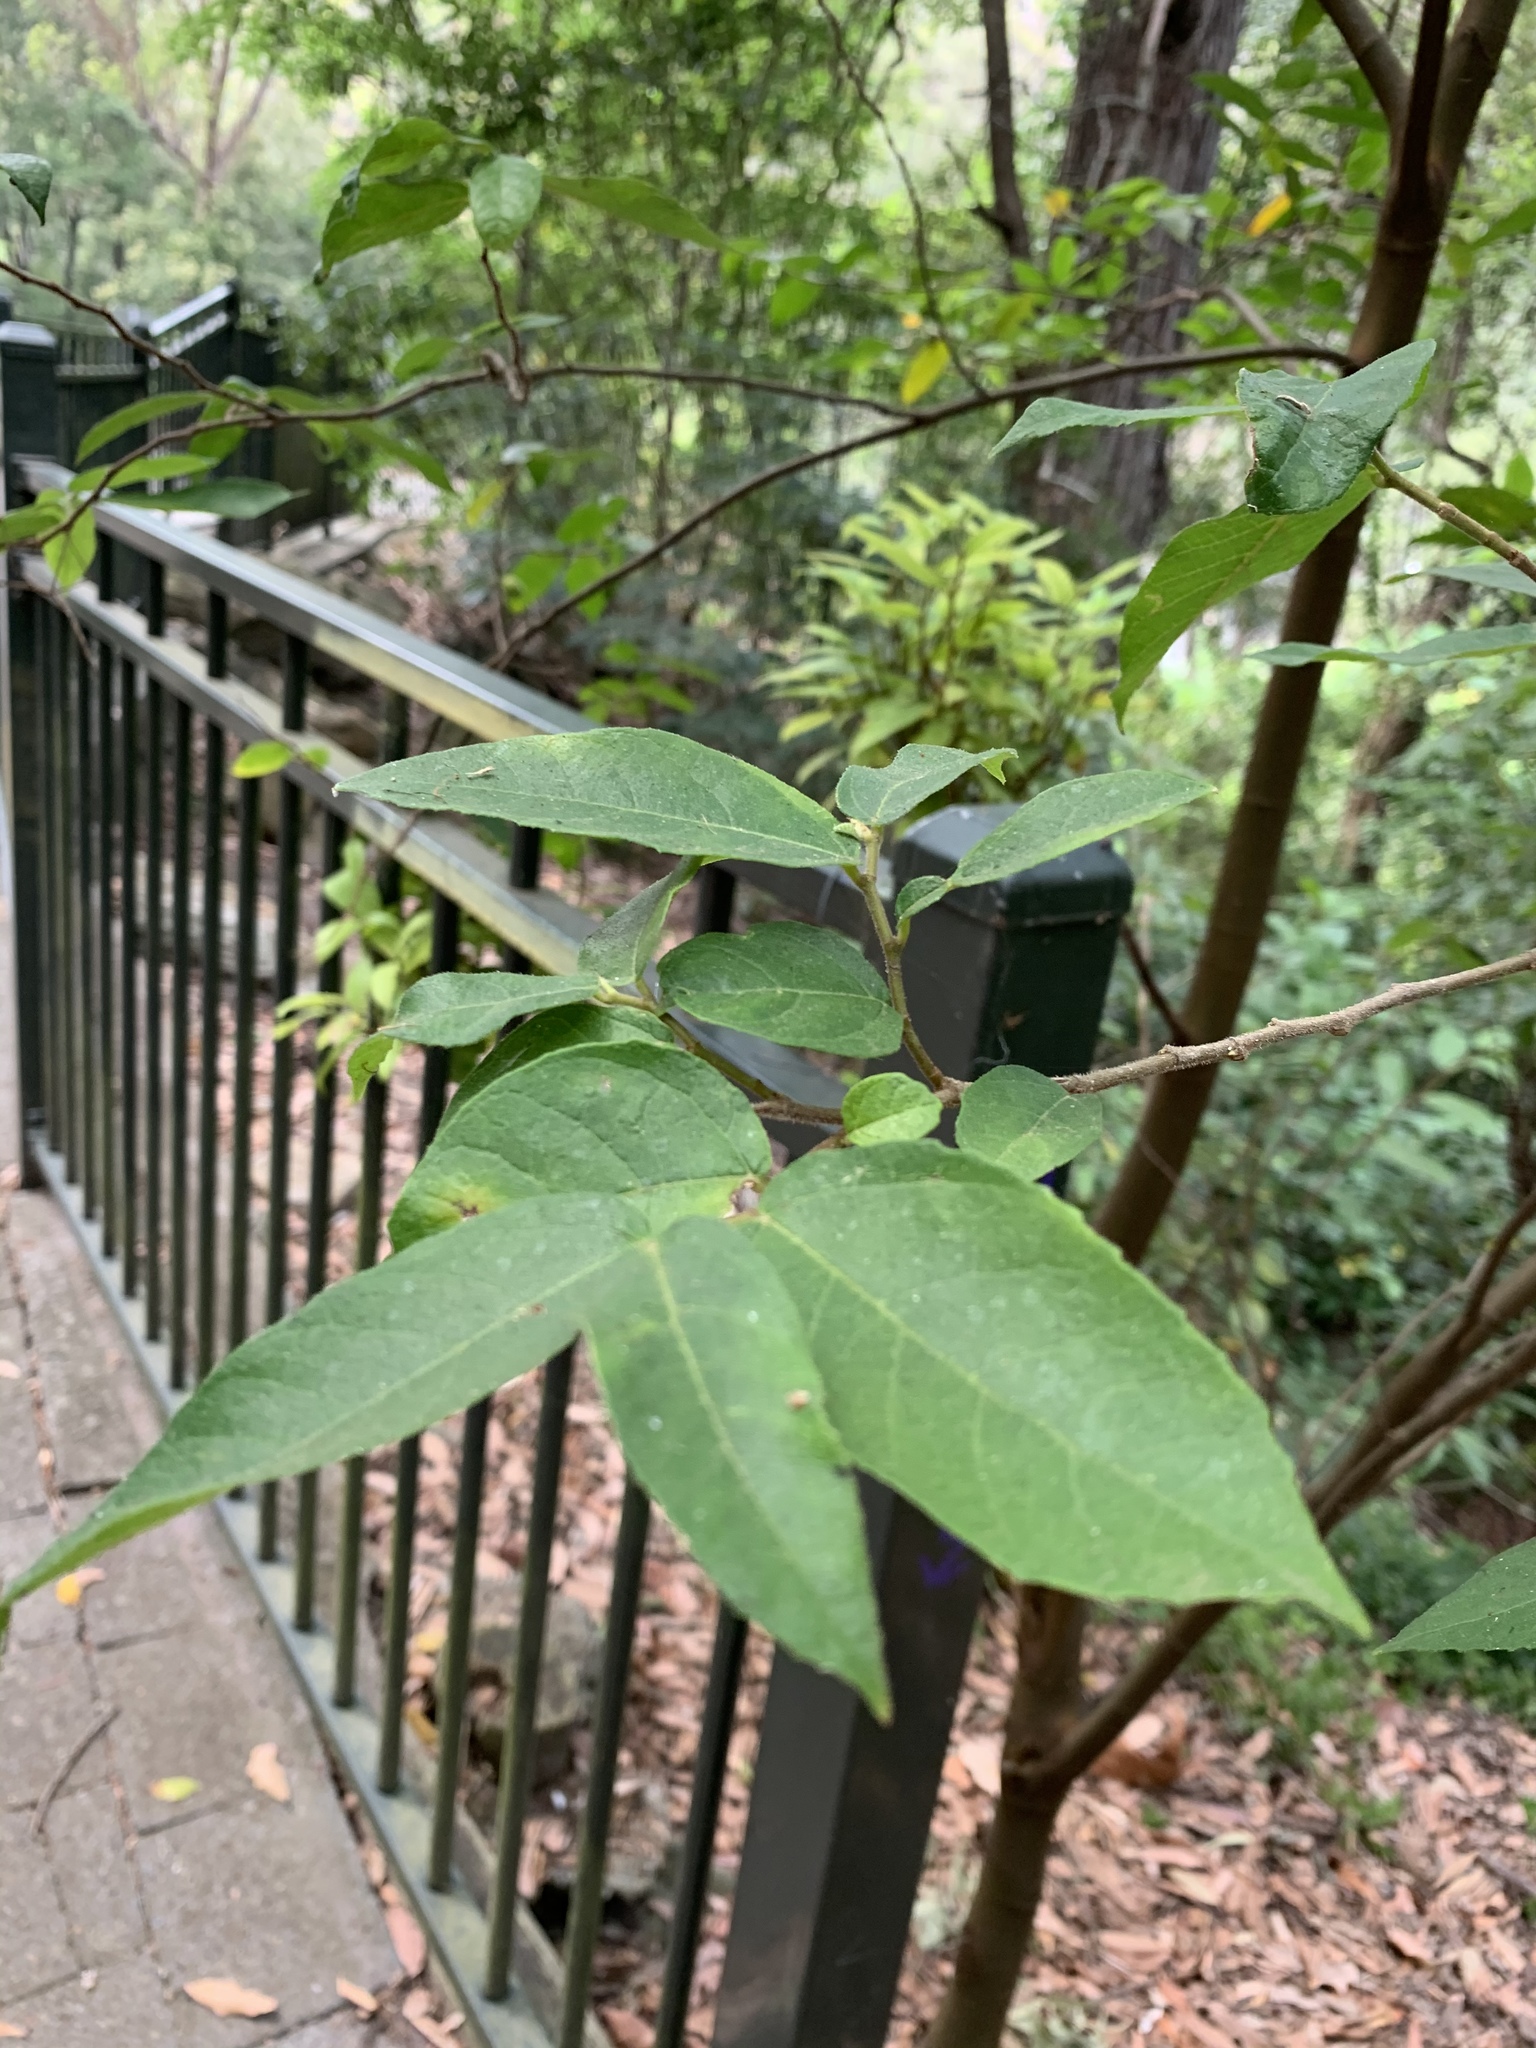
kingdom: Plantae
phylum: Tracheophyta
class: Magnoliopsida
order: Rosales
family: Moraceae
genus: Ficus
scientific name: Ficus coronata
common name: Creek sandpaper fig
